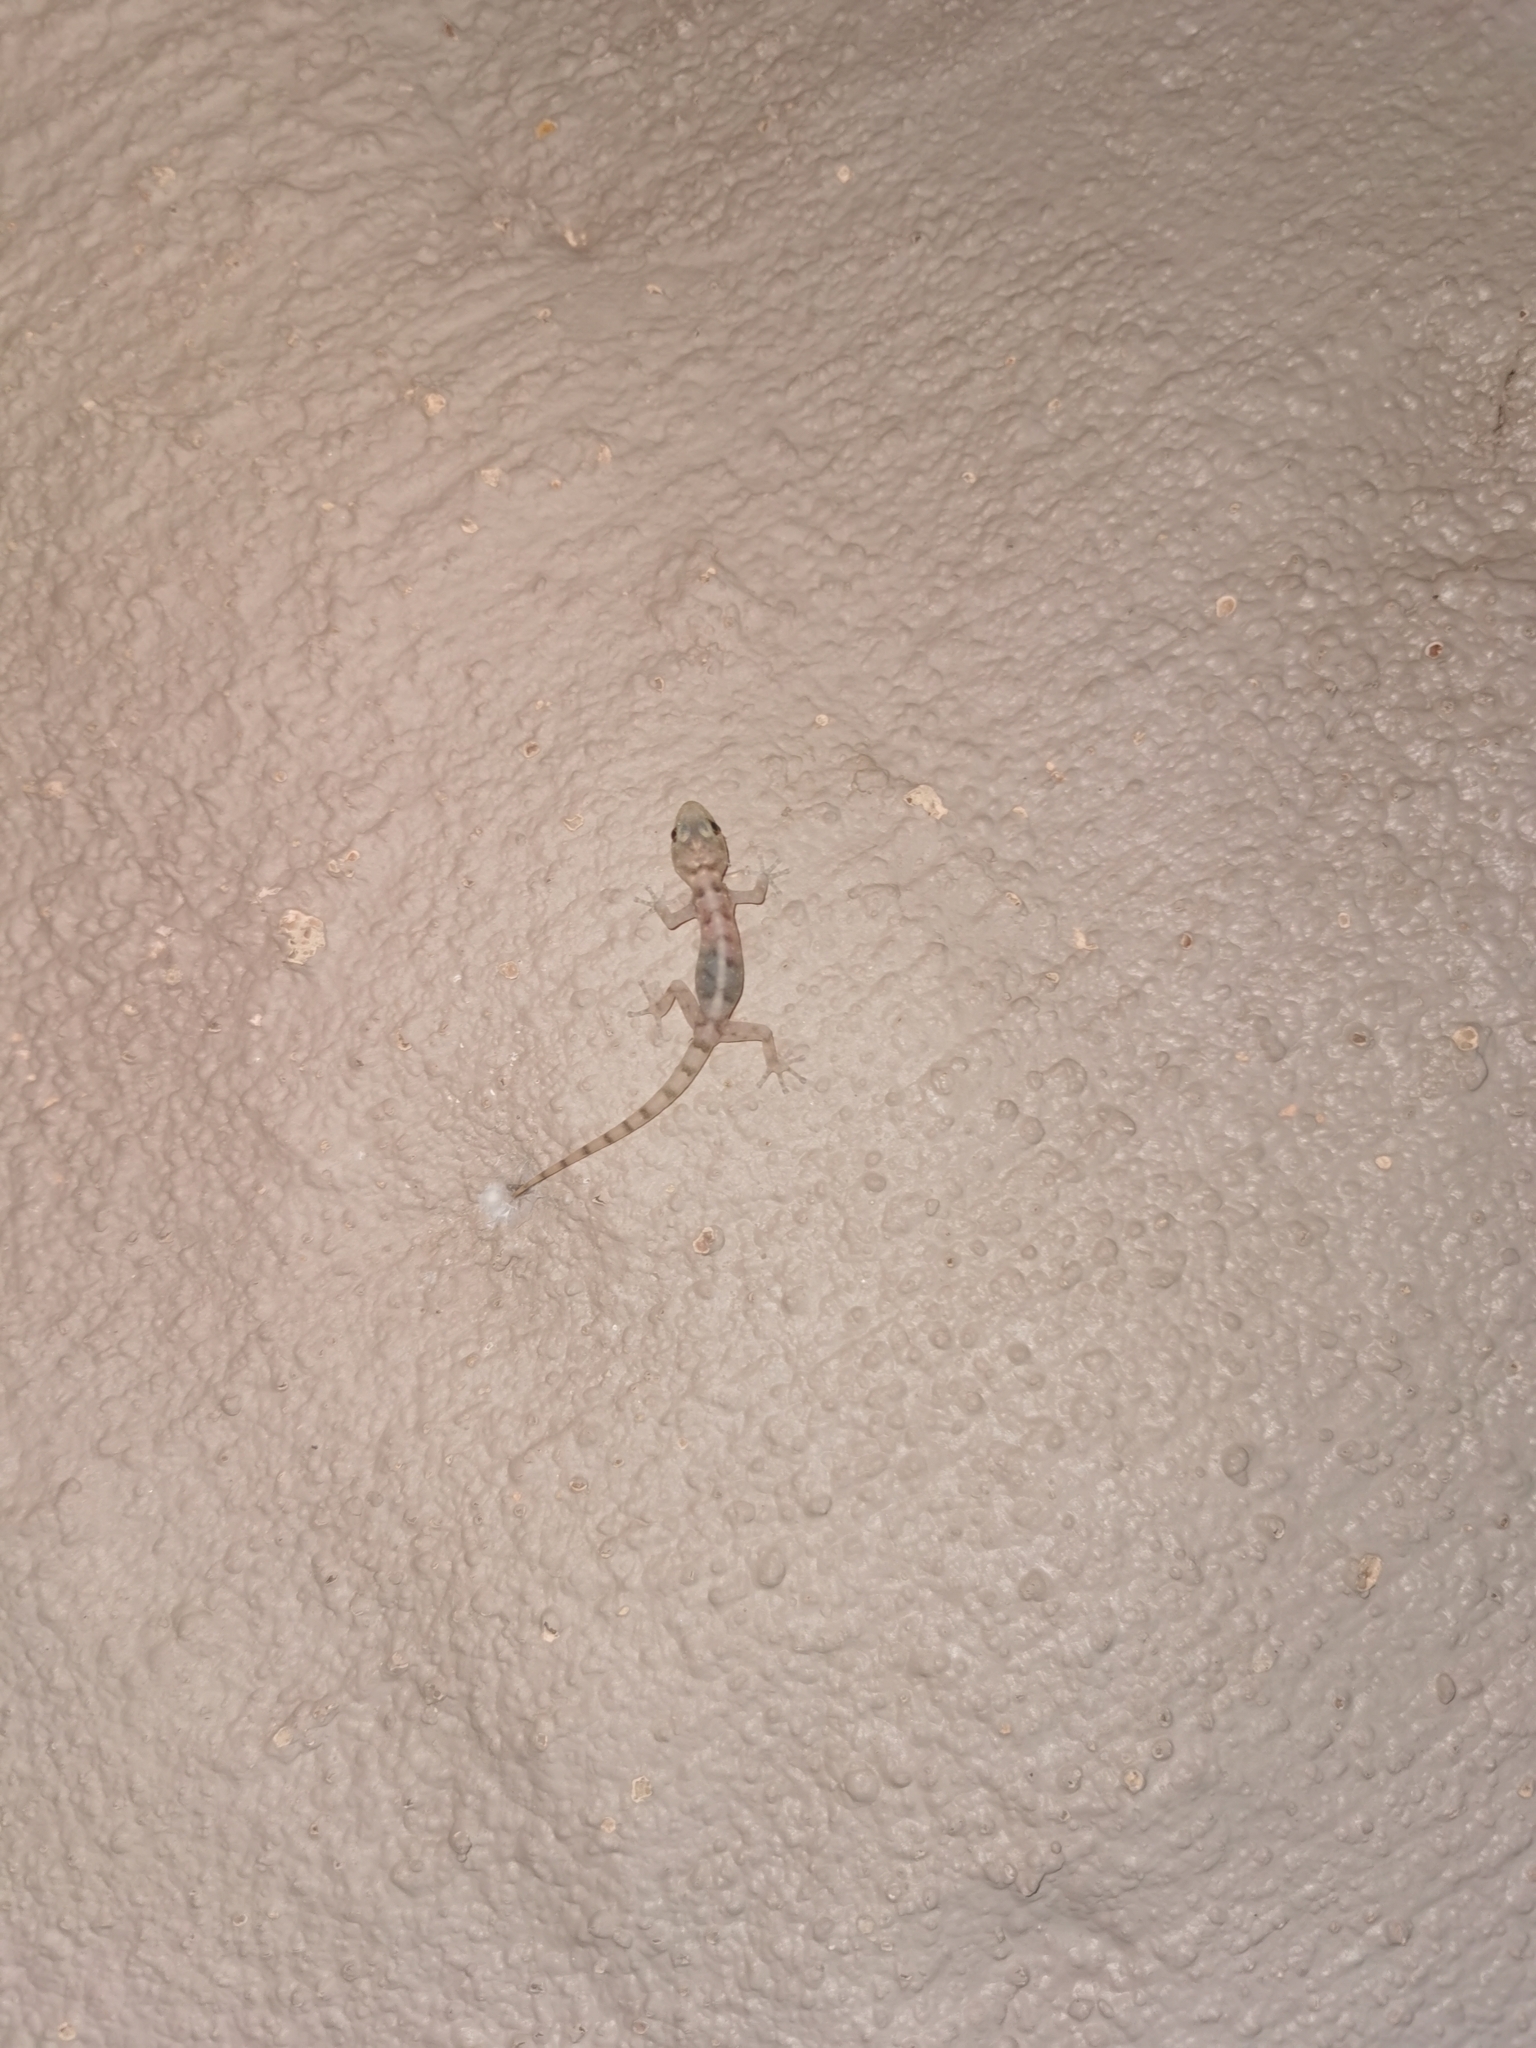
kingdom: Animalia
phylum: Chordata
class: Squamata
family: Gekkonidae
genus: Hemidactylus
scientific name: Hemidactylus mabouia
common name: House gecko
